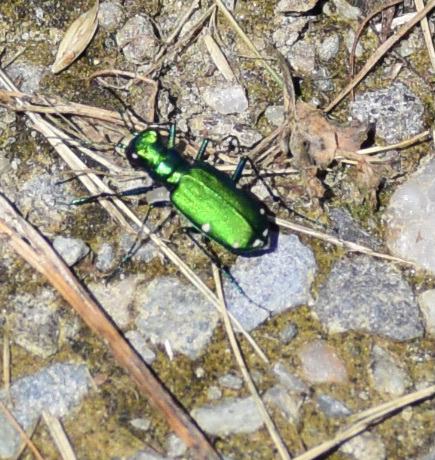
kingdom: Animalia
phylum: Arthropoda
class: Insecta
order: Coleoptera
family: Carabidae
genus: Cicindela
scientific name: Cicindela sexguttata
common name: Six-spotted tiger beetle
